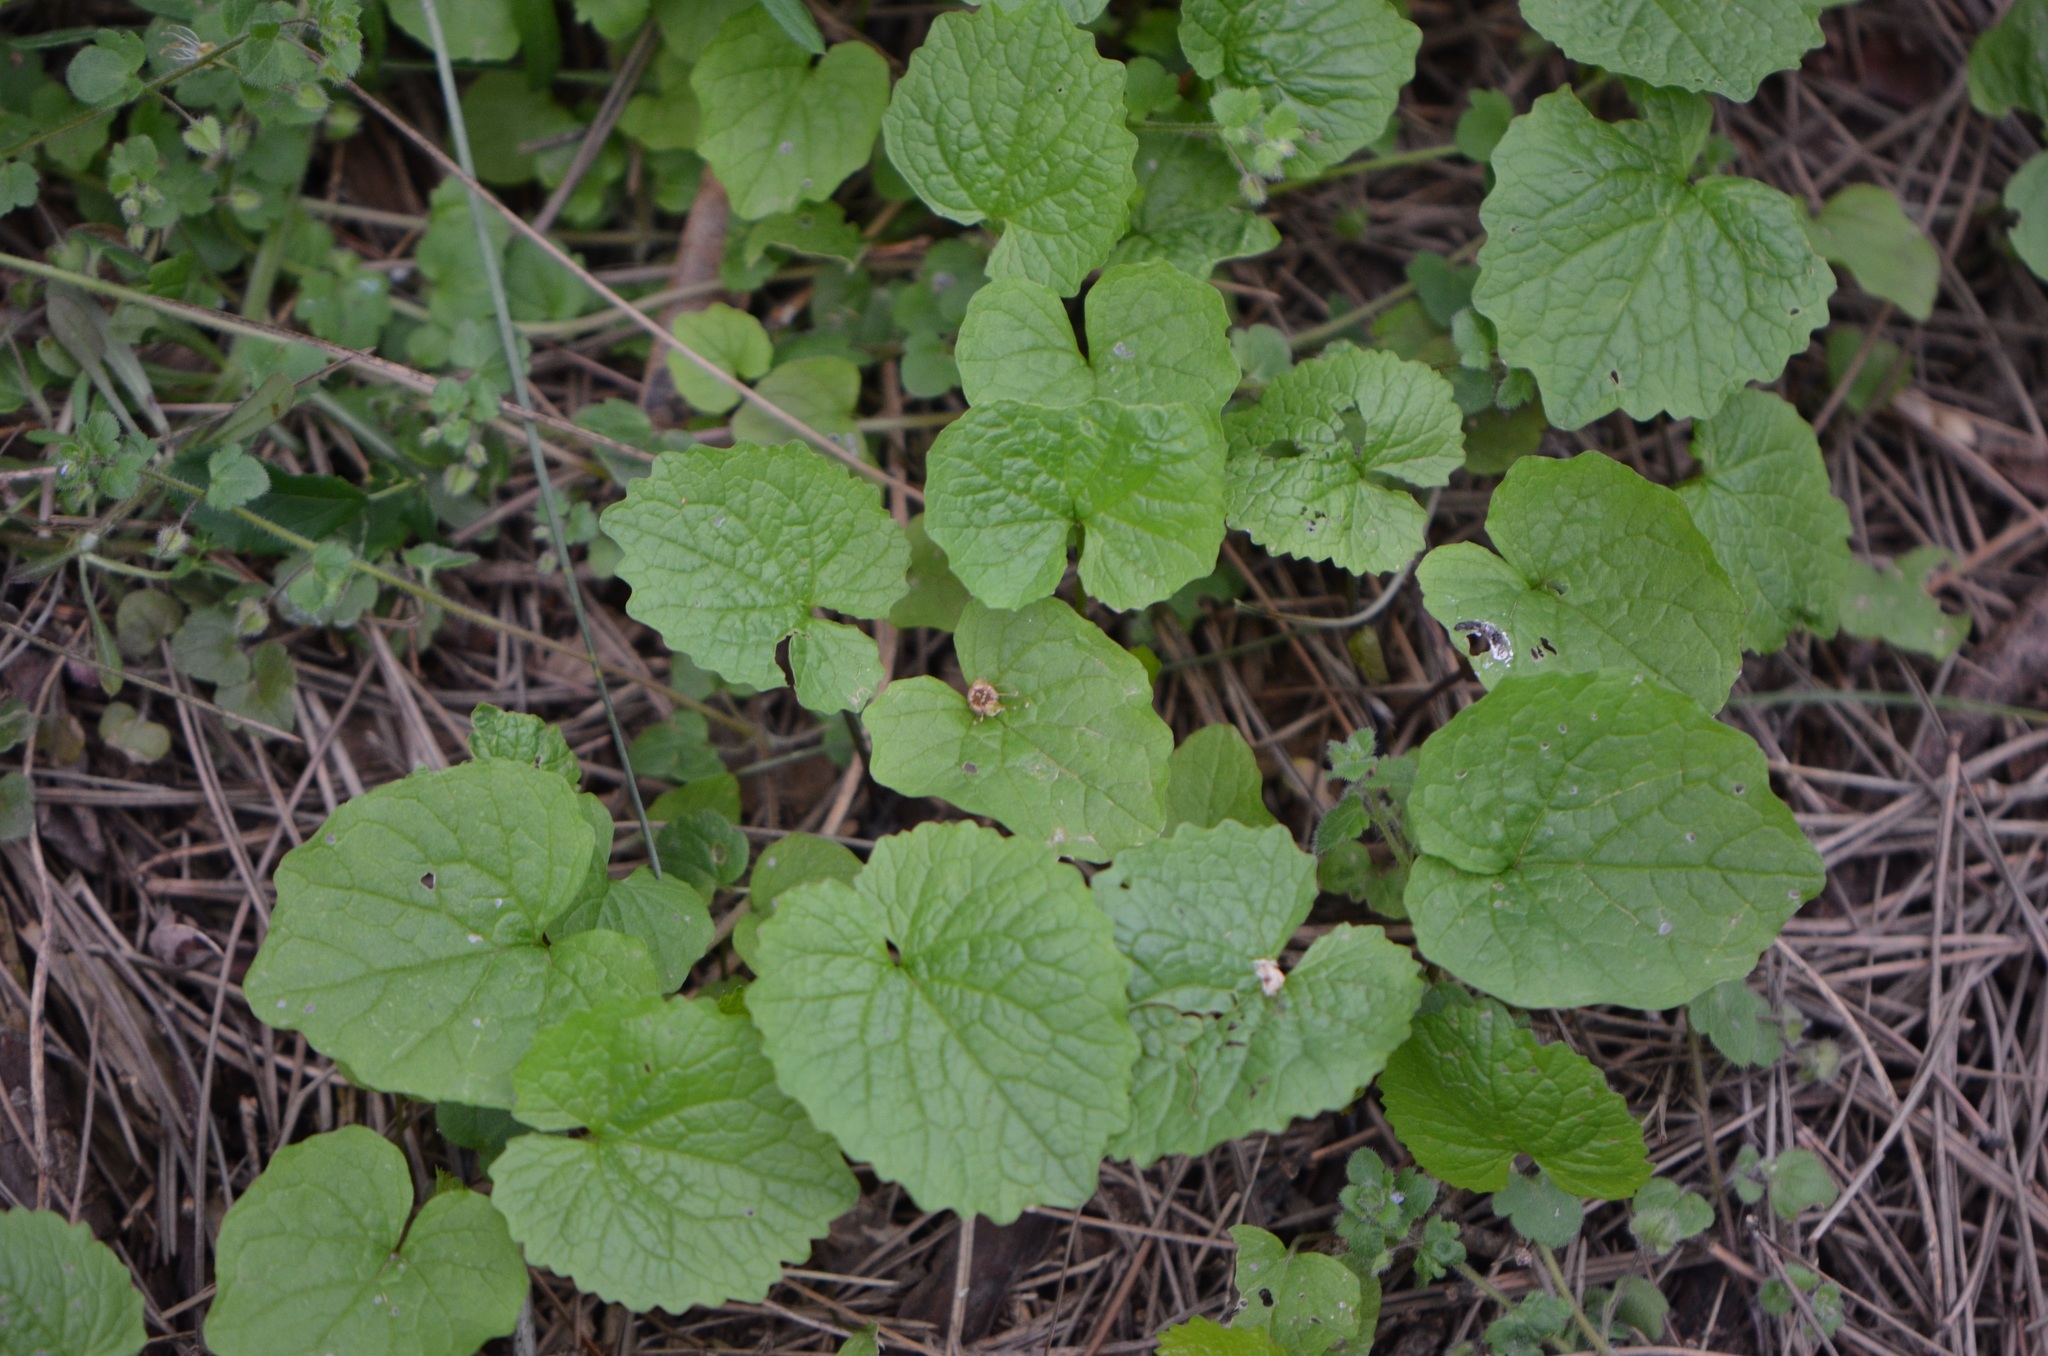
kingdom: Plantae
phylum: Tracheophyta
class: Magnoliopsida
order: Brassicales
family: Brassicaceae
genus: Alliaria
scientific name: Alliaria petiolata
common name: Garlic mustard
